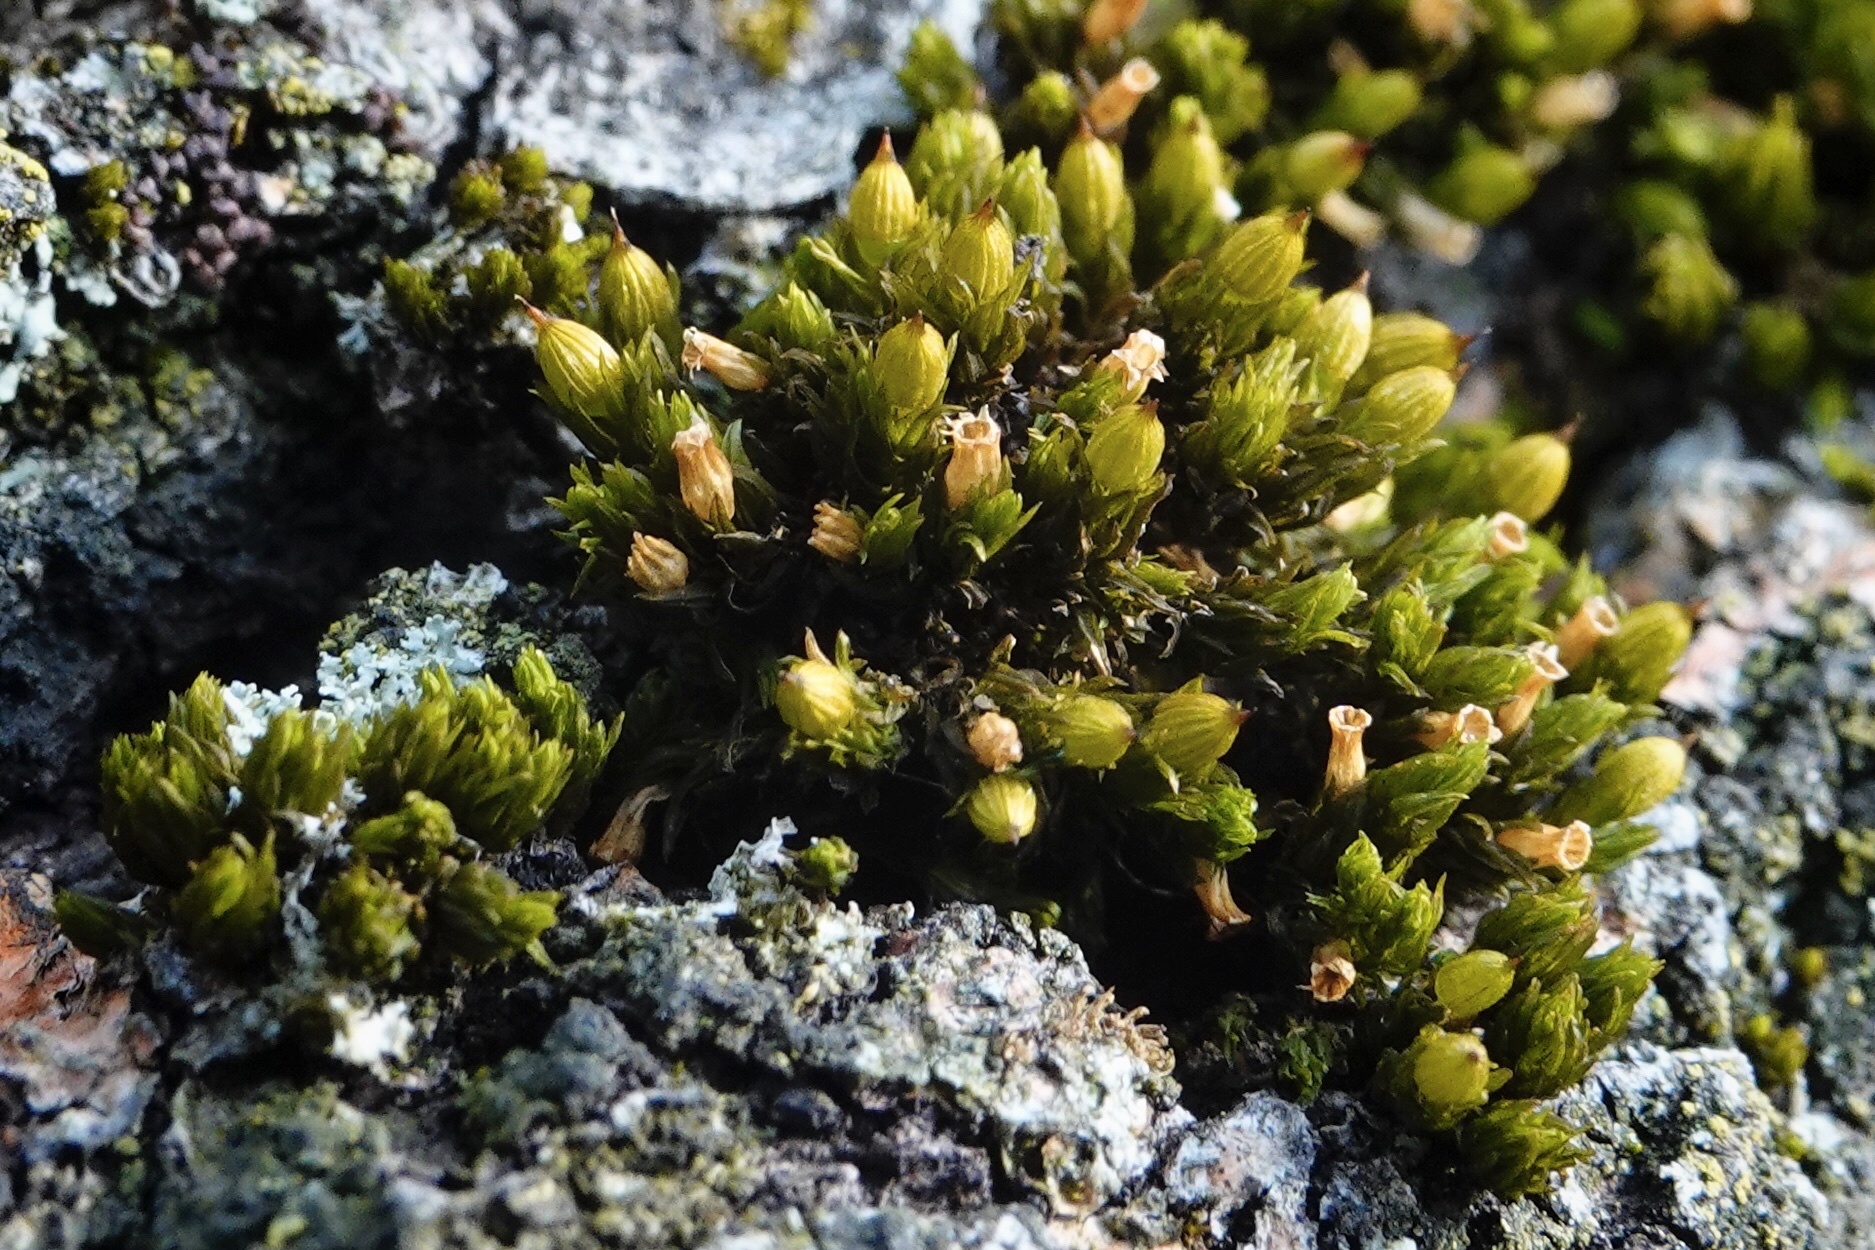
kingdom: Plantae
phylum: Bryophyta
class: Bryopsida
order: Orthotrichales
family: Orthotrichaceae
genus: Orthotrichum
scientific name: Orthotrichum stellatum
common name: Starlike bristle moss
